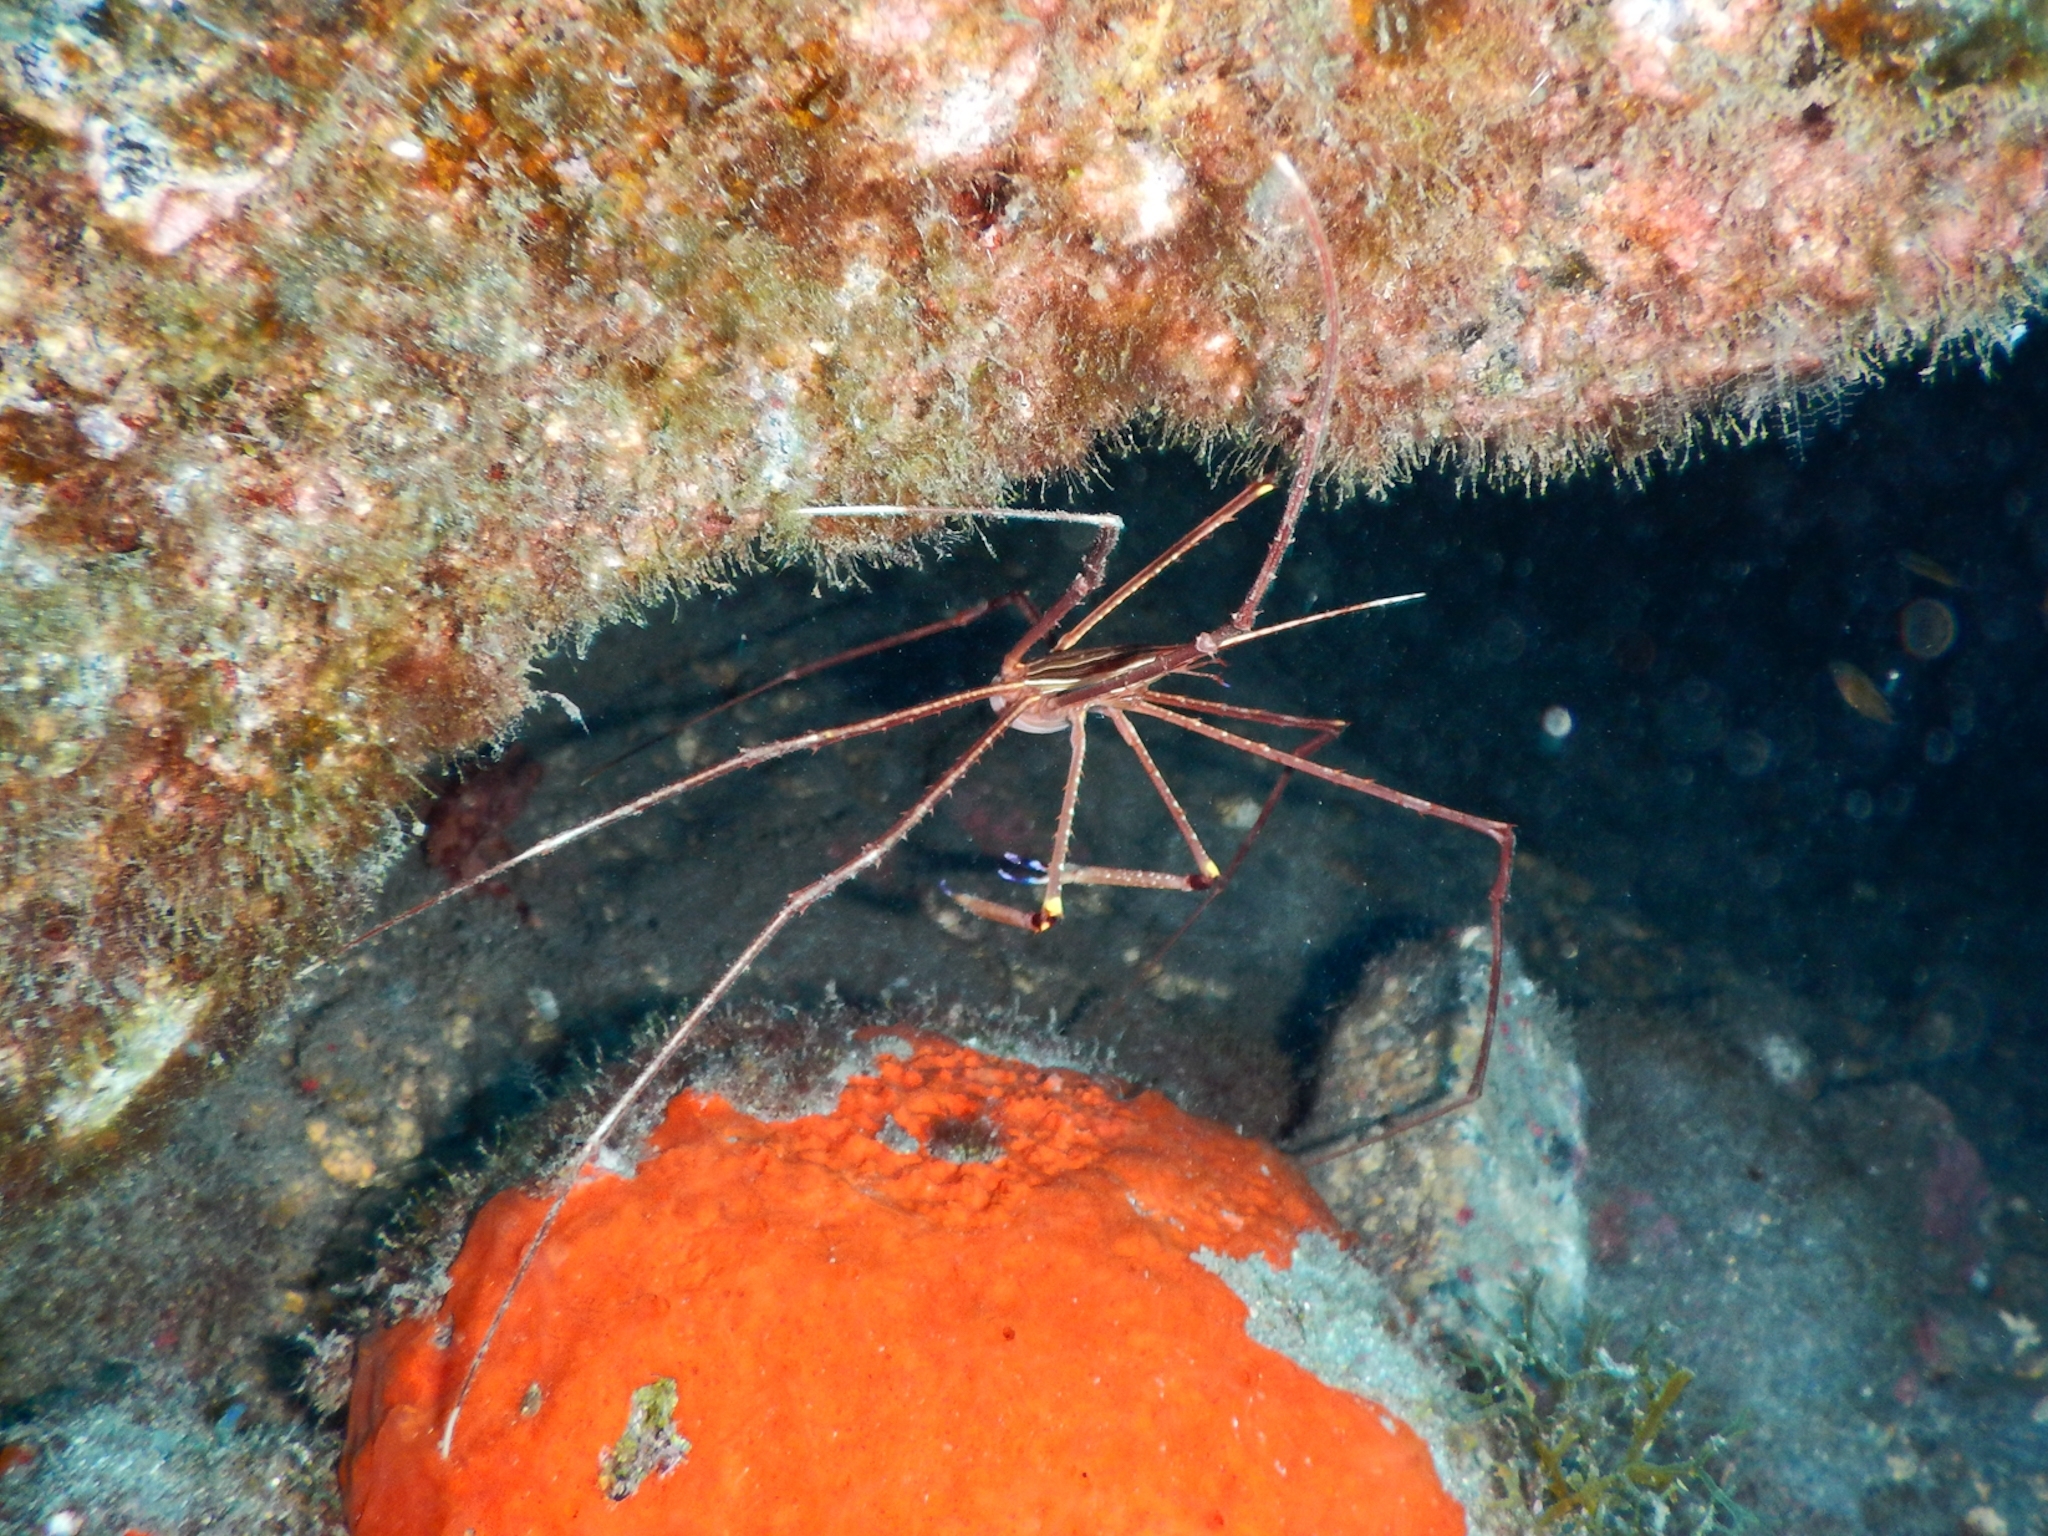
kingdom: Animalia
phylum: Arthropoda
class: Malacostraca
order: Decapoda
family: Inachoididae
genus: Stenorhynchus
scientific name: Stenorhynchus lanceolatus
